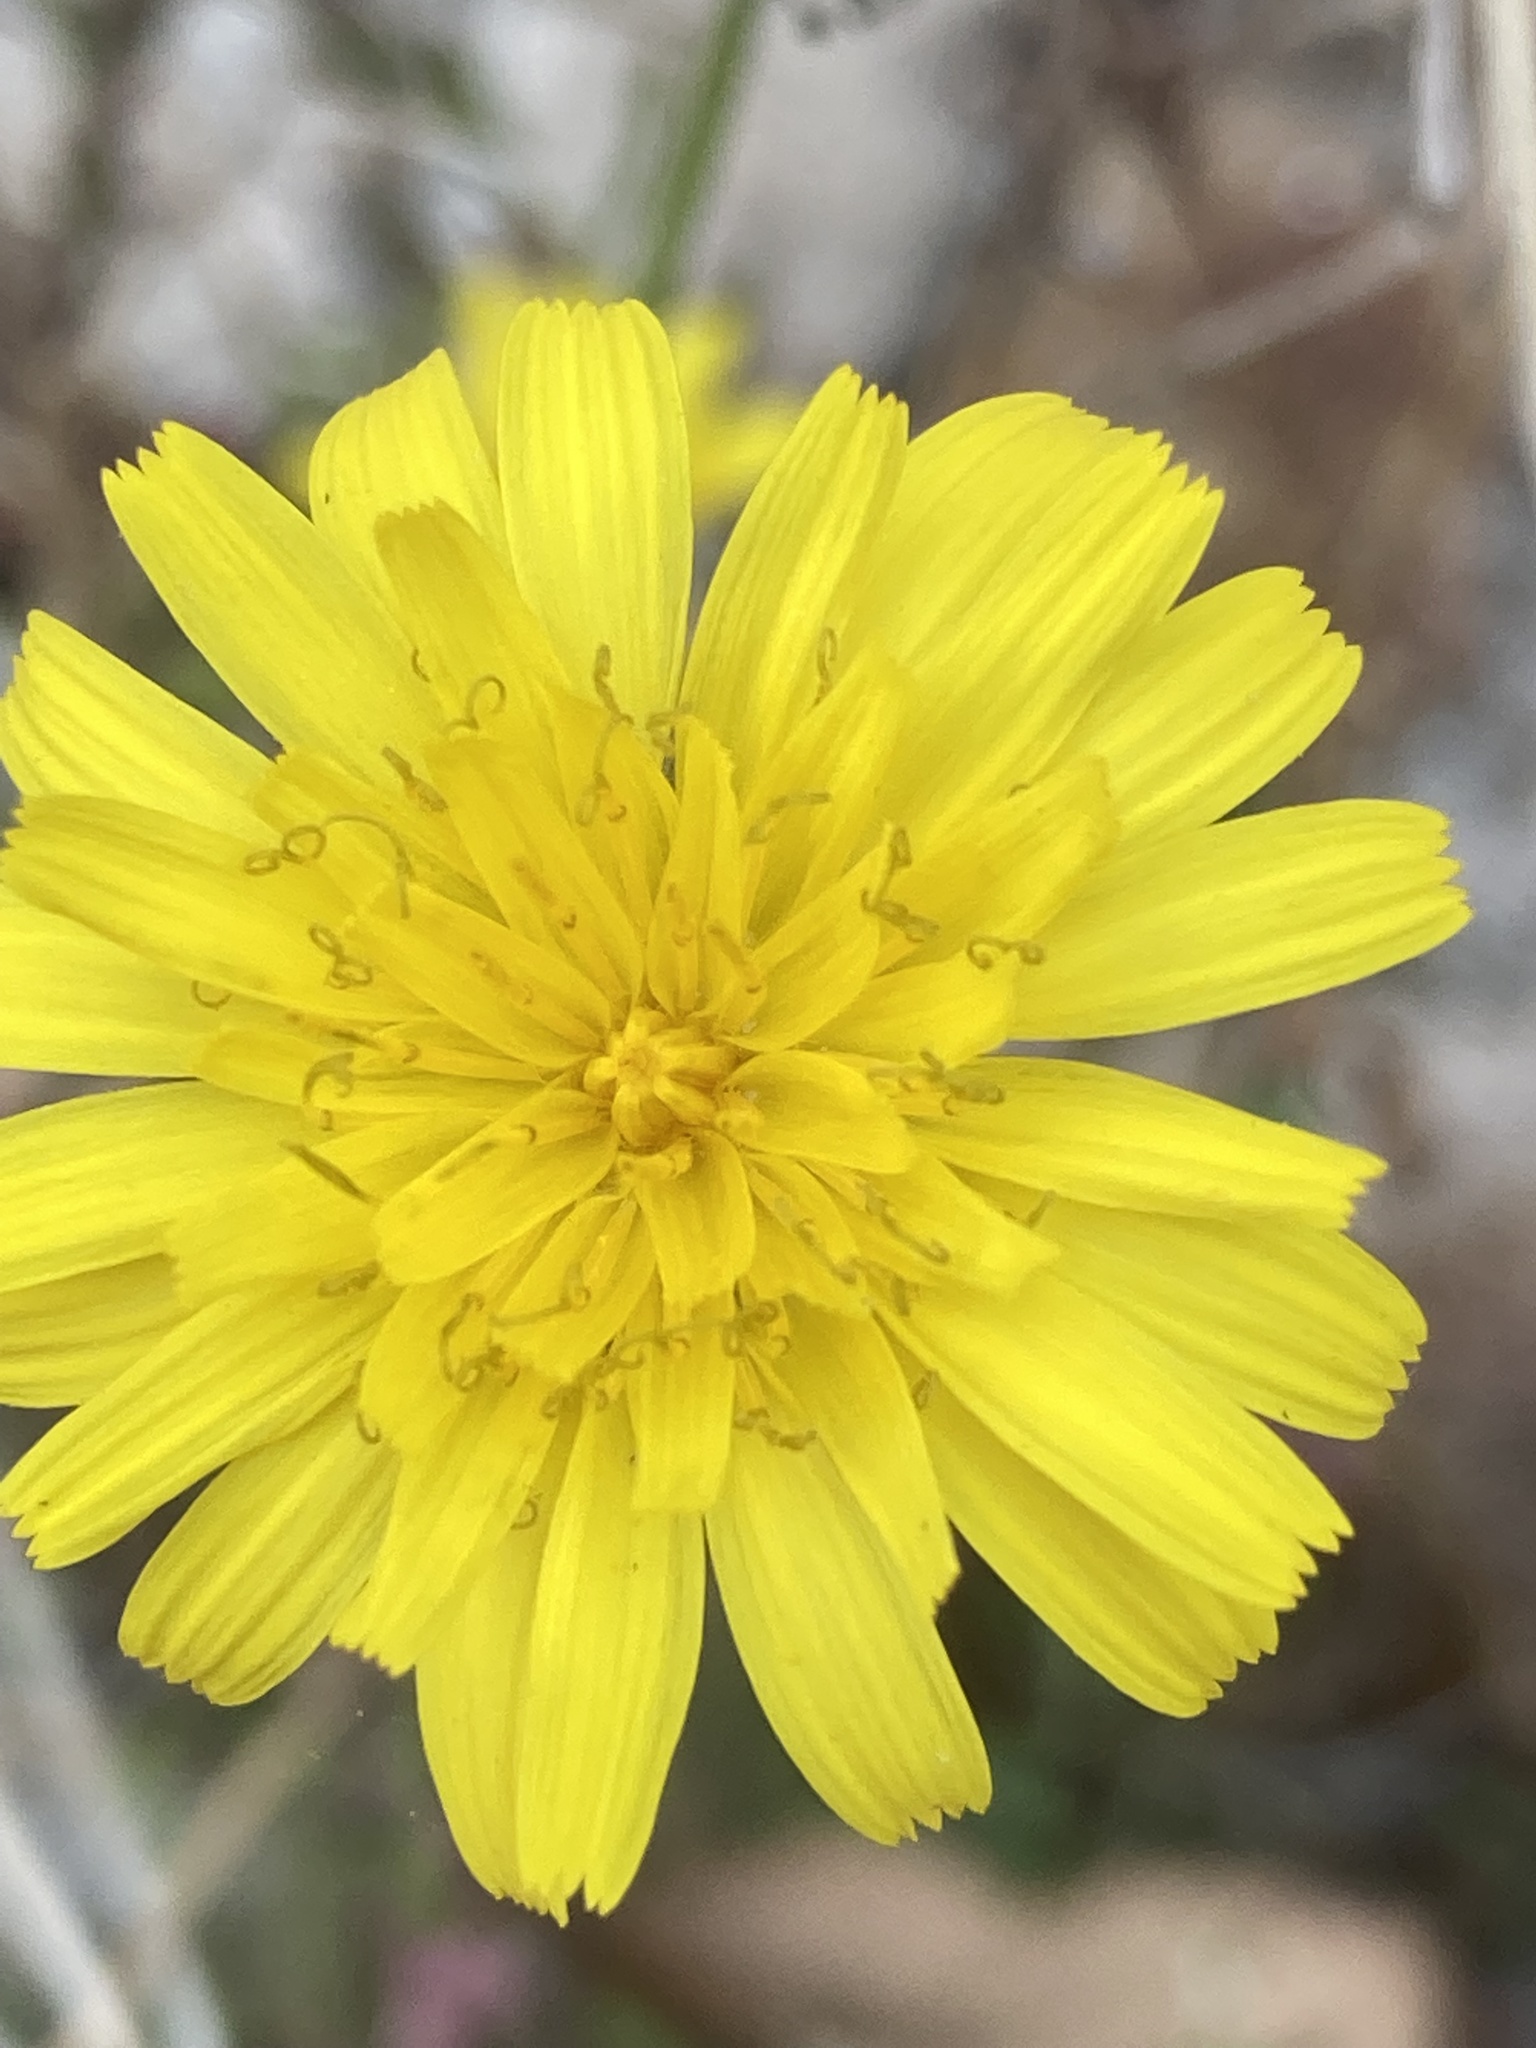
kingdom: Plantae
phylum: Tracheophyta
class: Magnoliopsida
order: Asterales
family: Asteraceae
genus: Sonchus
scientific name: Sonchus tenerrimus
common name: Clammy sowthistle
